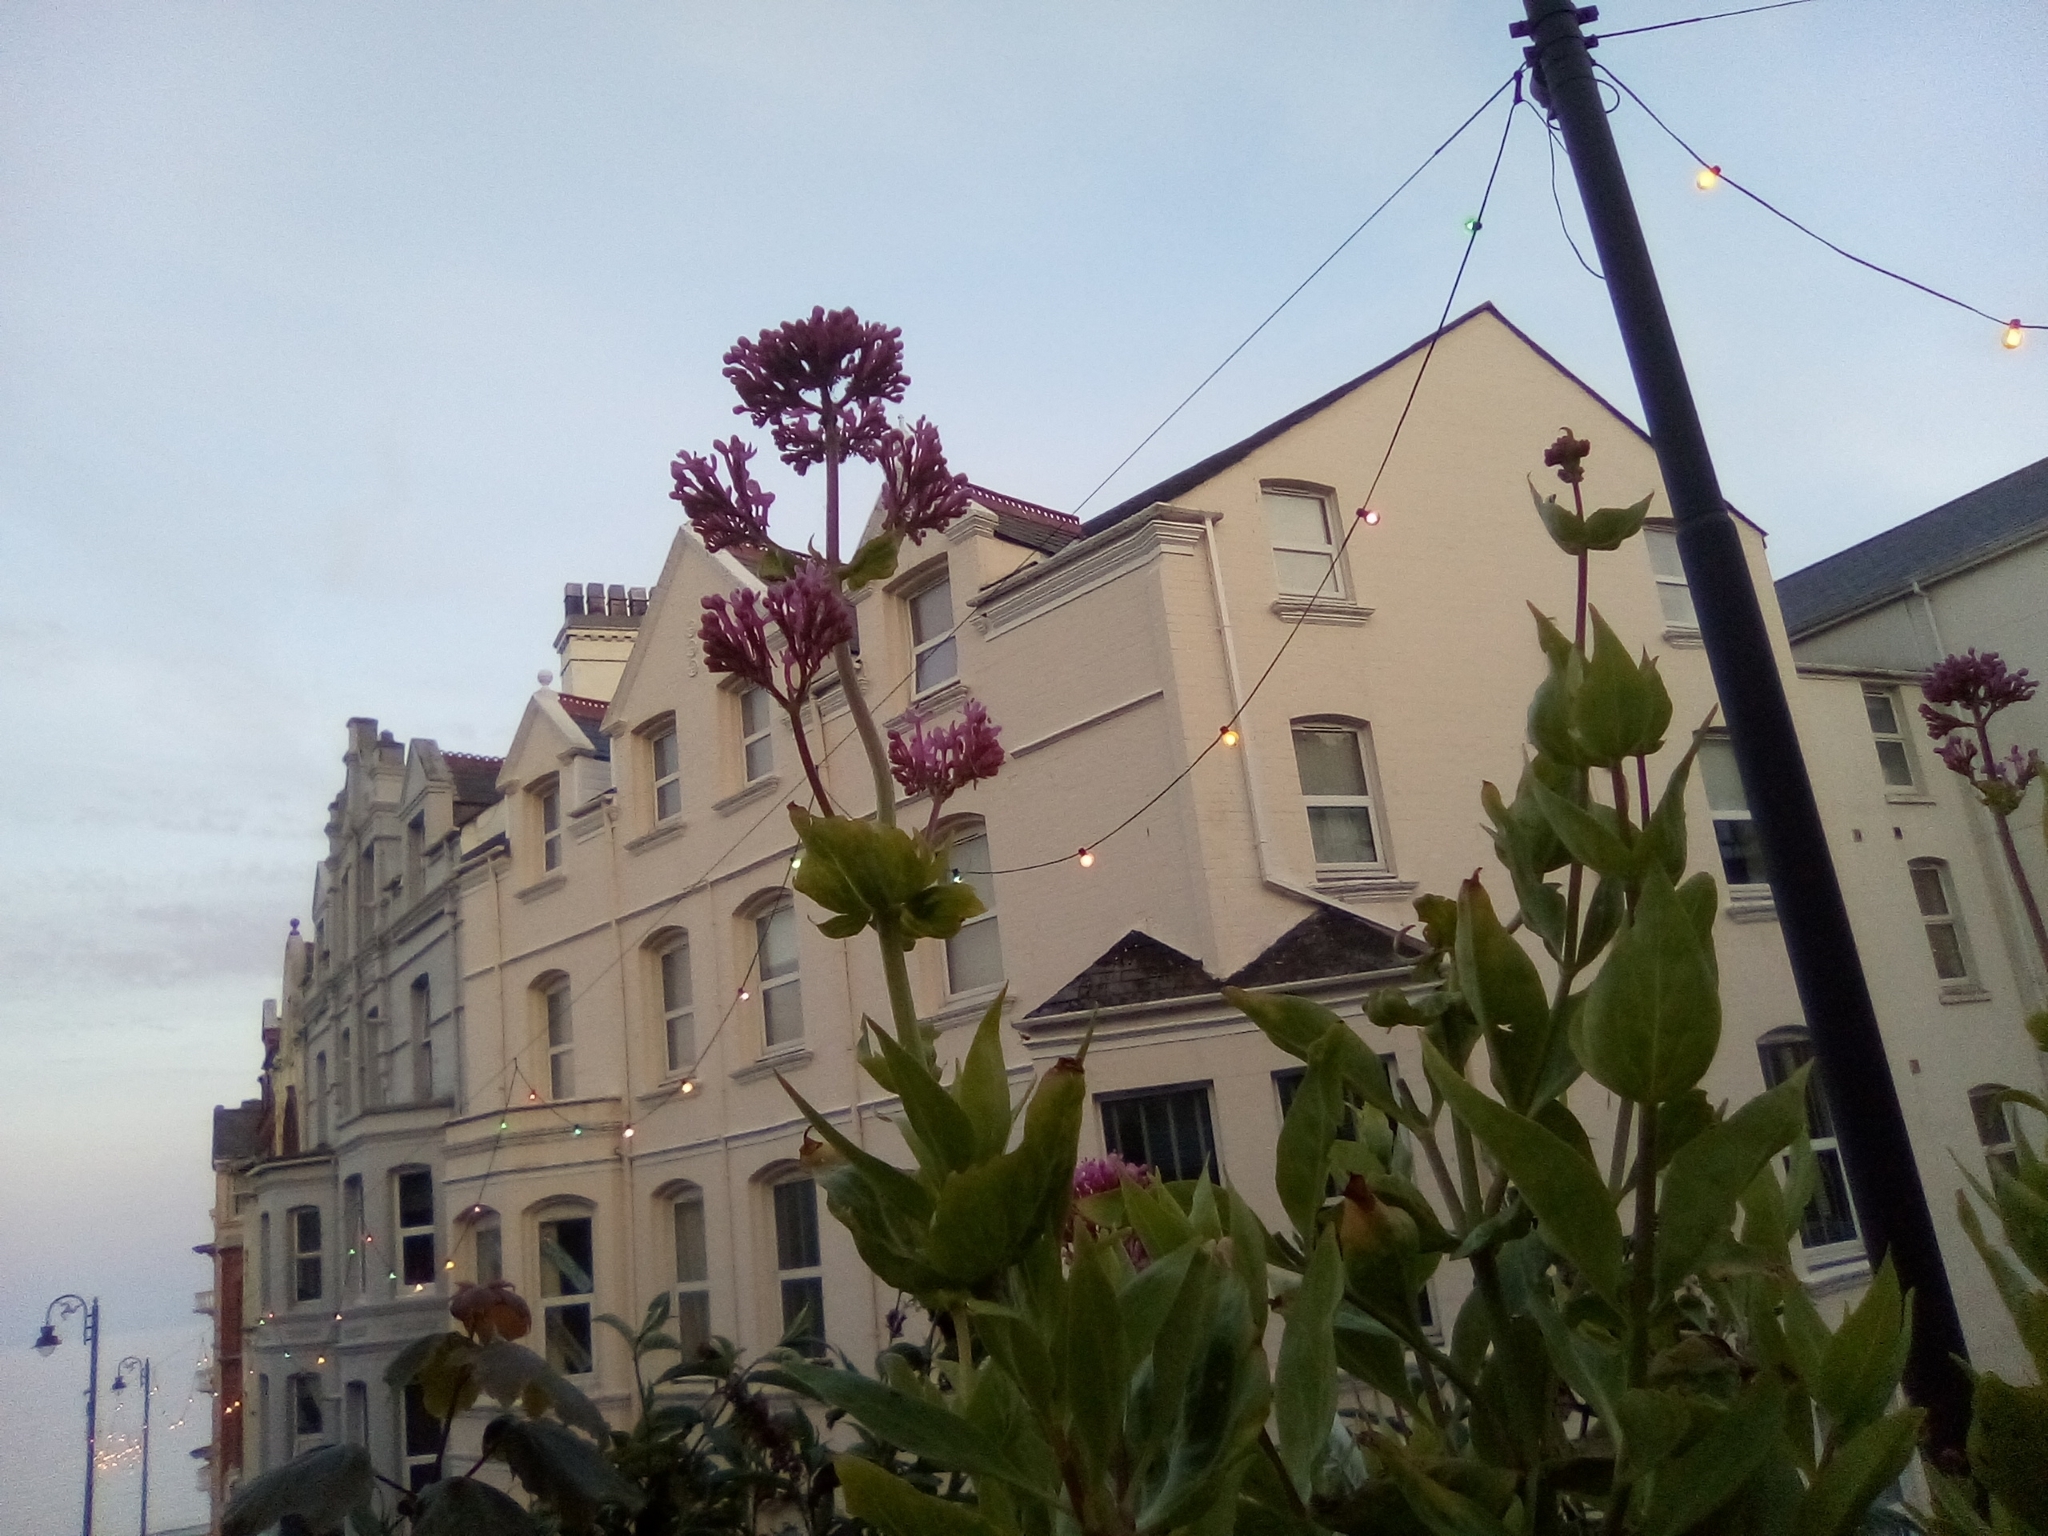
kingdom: Plantae
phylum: Tracheophyta
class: Magnoliopsida
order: Dipsacales
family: Caprifoliaceae
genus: Centranthus
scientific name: Centranthus ruber
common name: Red valerian
